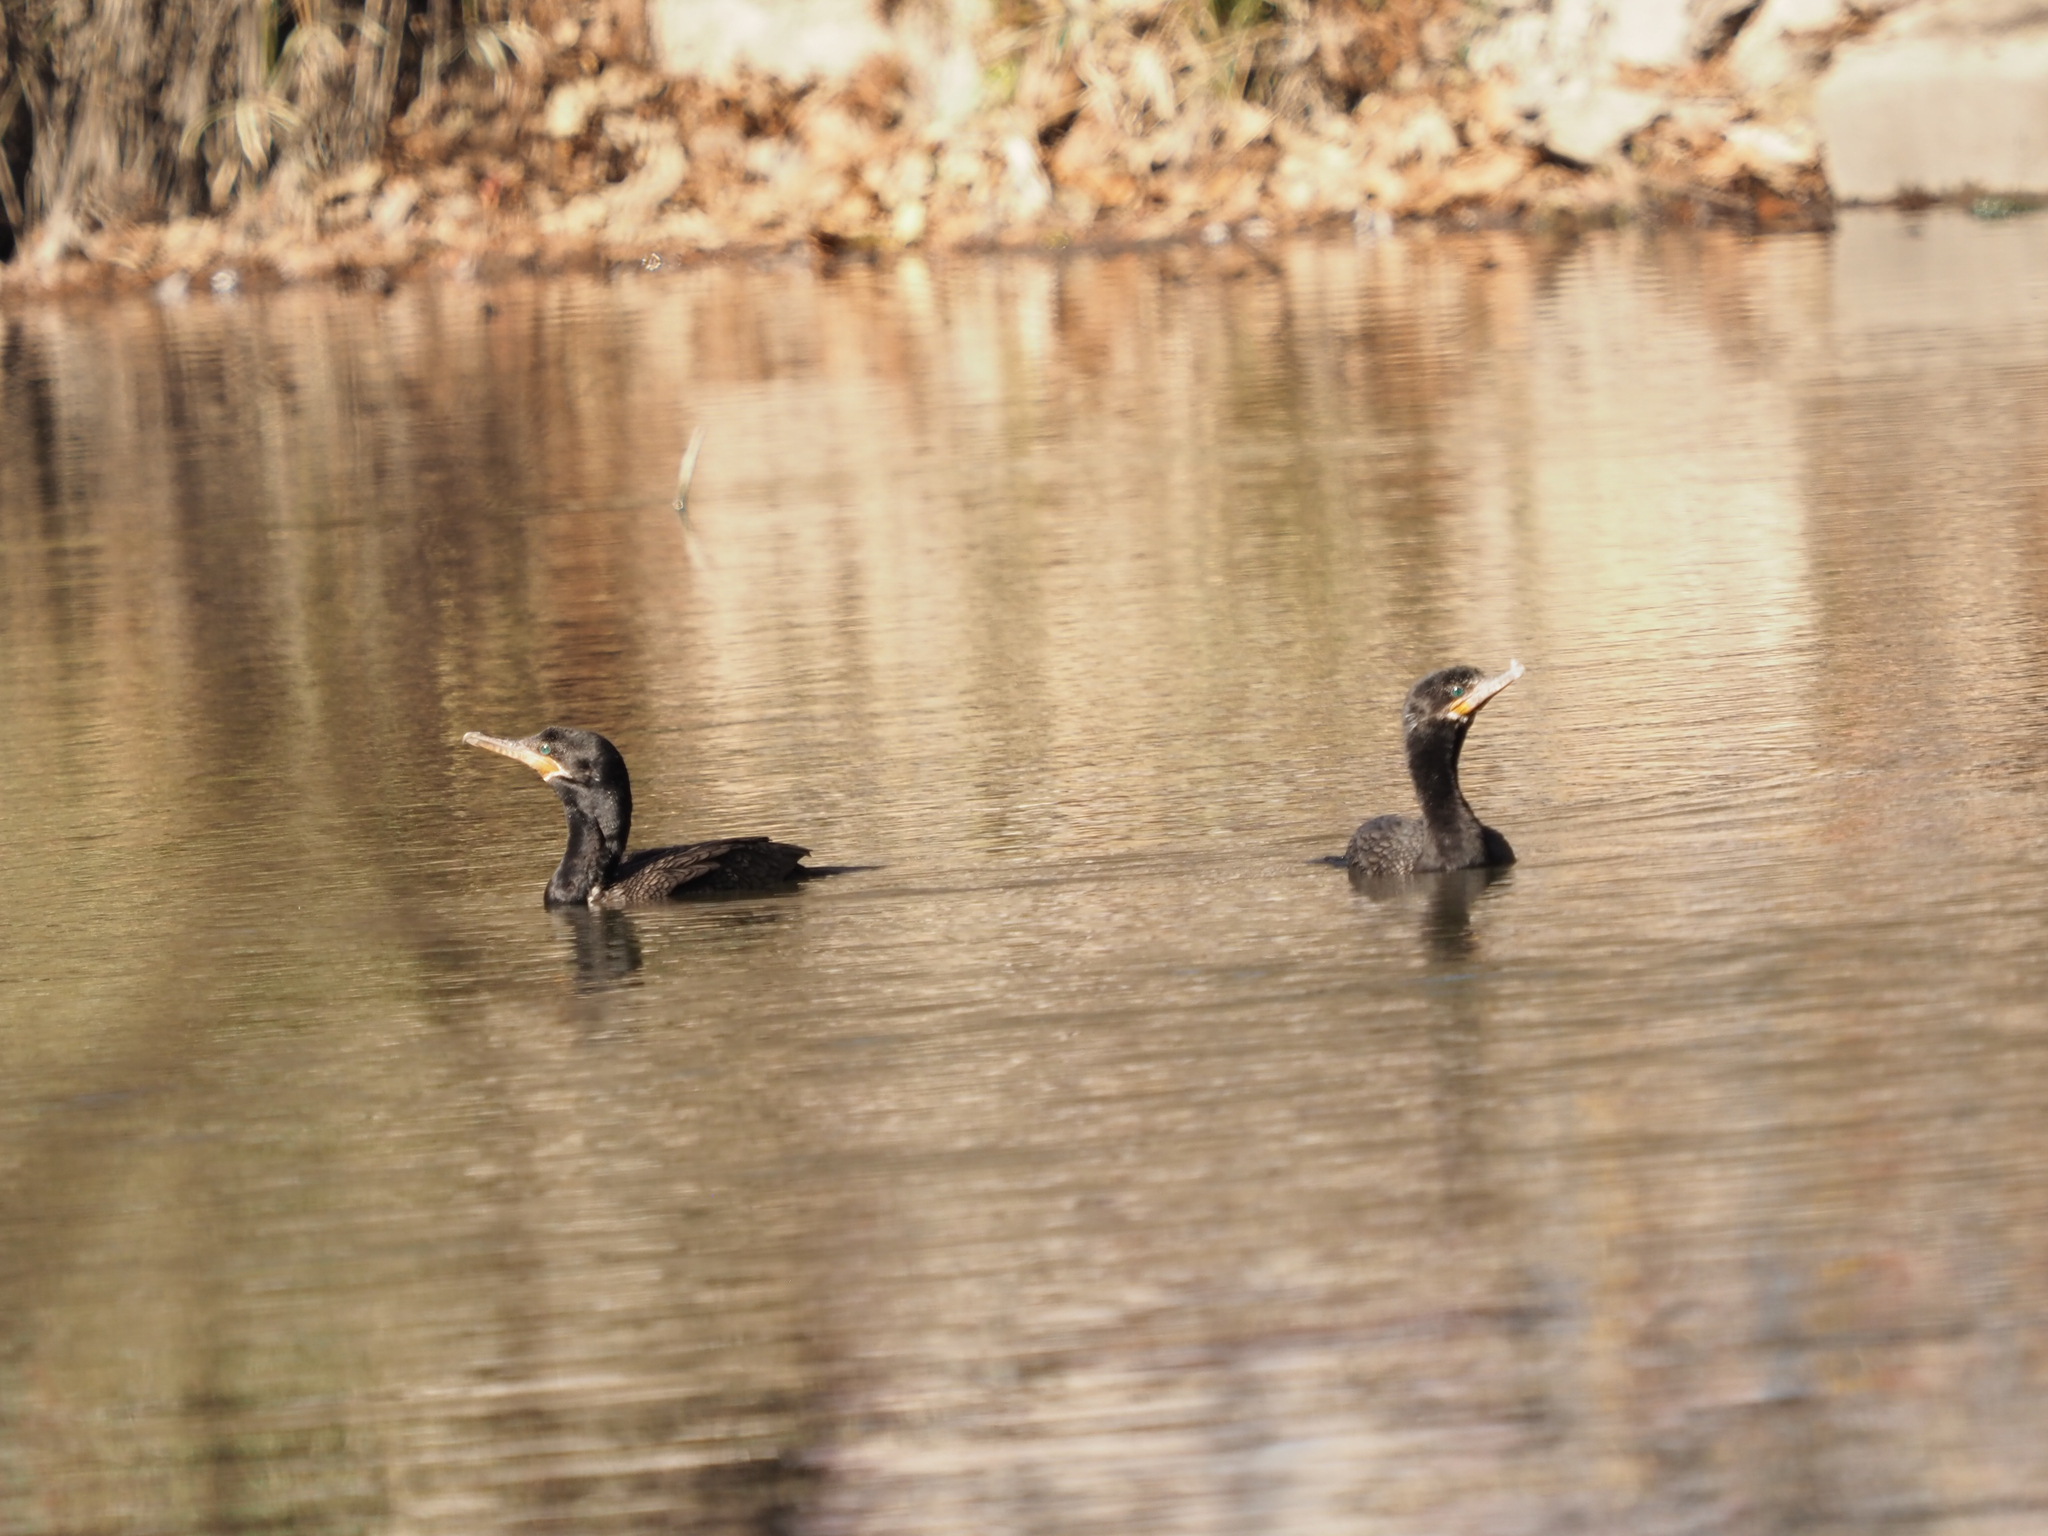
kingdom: Animalia
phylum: Chordata
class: Aves
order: Suliformes
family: Phalacrocoracidae
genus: Phalacrocorax
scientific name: Phalacrocorax brasilianus
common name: Neotropic cormorant
